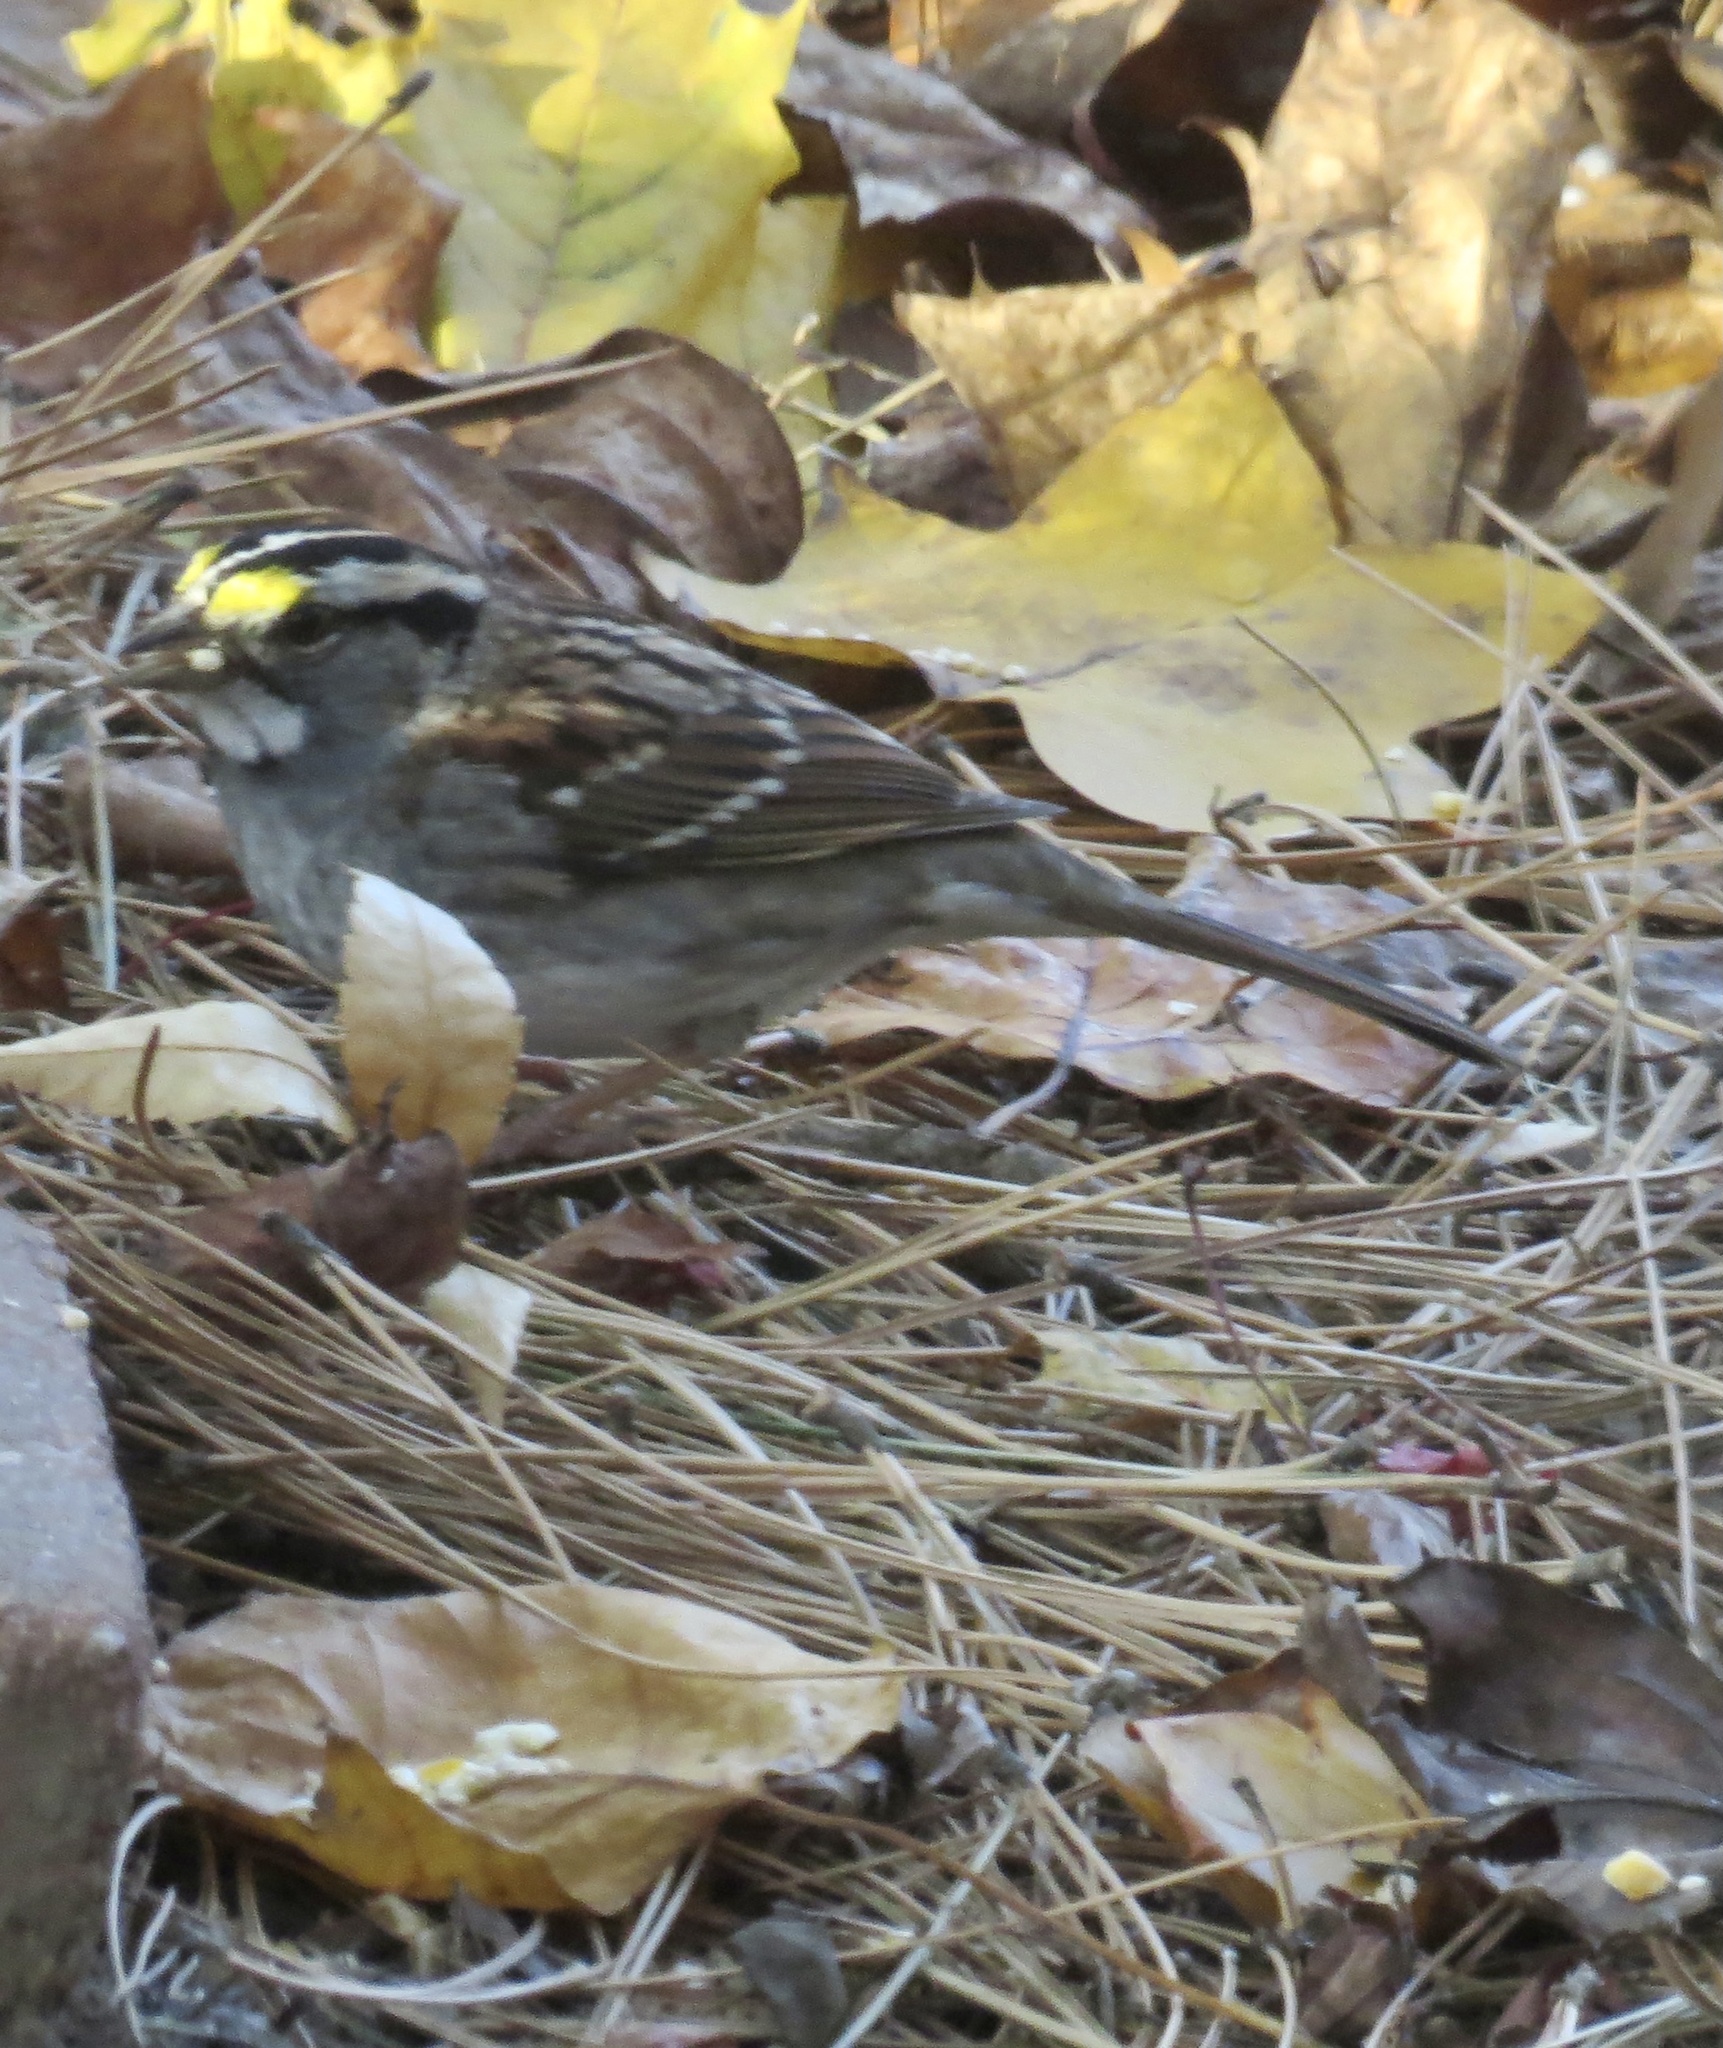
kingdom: Animalia
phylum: Chordata
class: Aves
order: Passeriformes
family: Passerellidae
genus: Zonotrichia
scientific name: Zonotrichia albicollis
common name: White-throated sparrow
